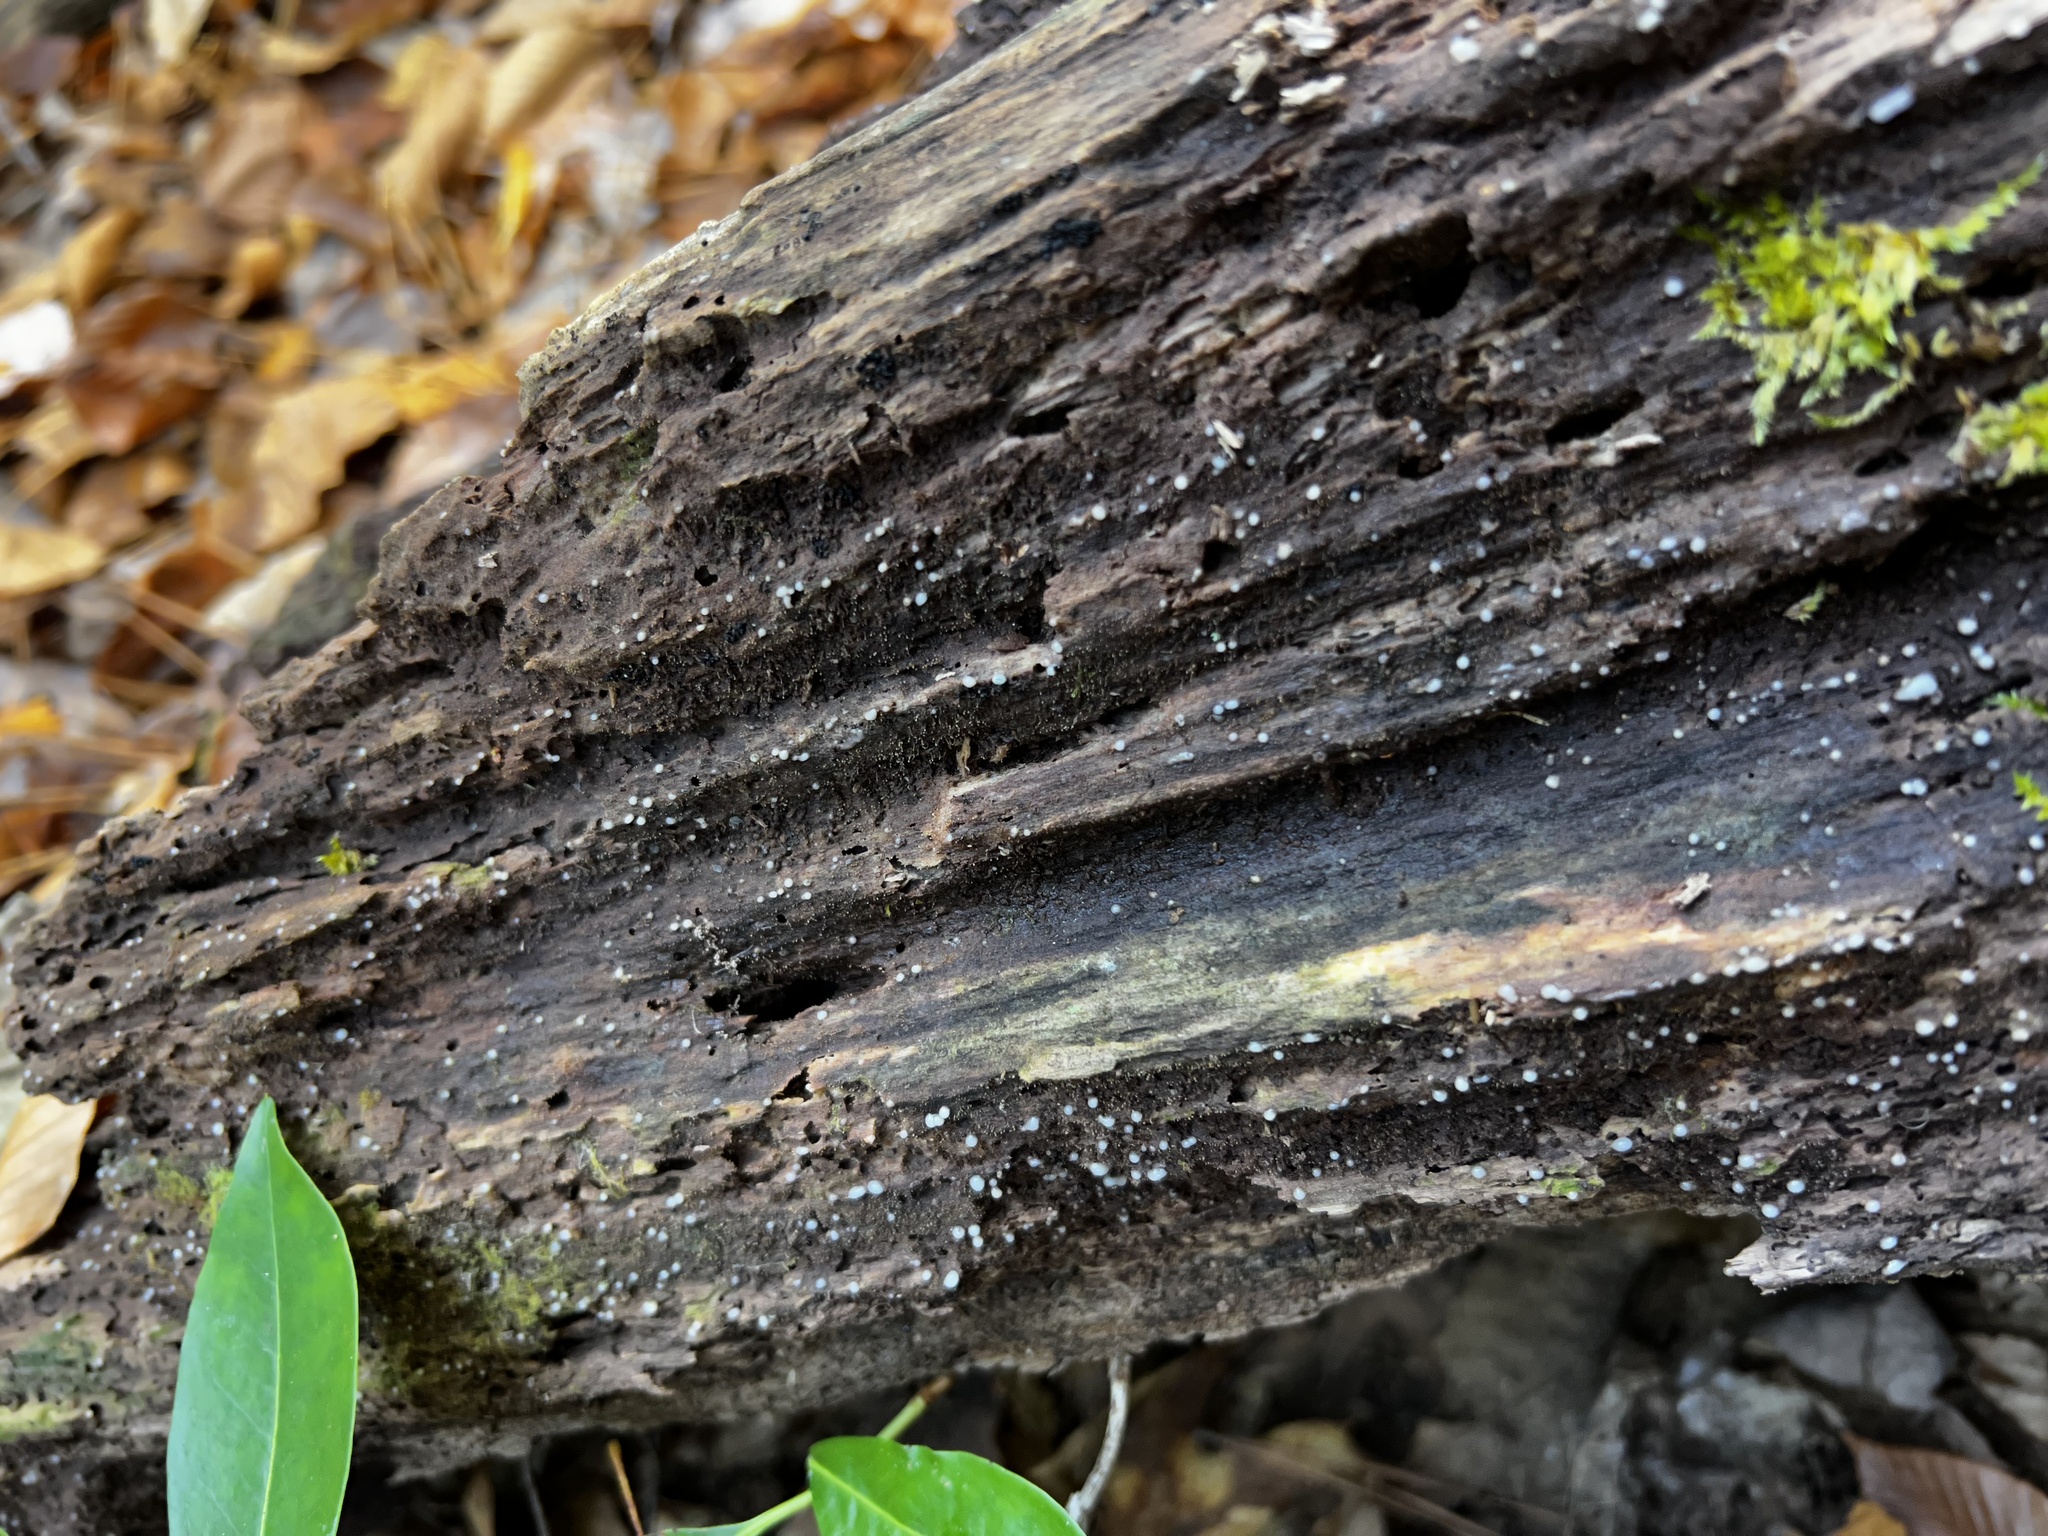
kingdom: Fungi
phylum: Basidiomycota
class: Atractiellomycetes
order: Atractiellales
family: Phleogenaceae
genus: Helicogloea
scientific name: Helicogloea compressa
